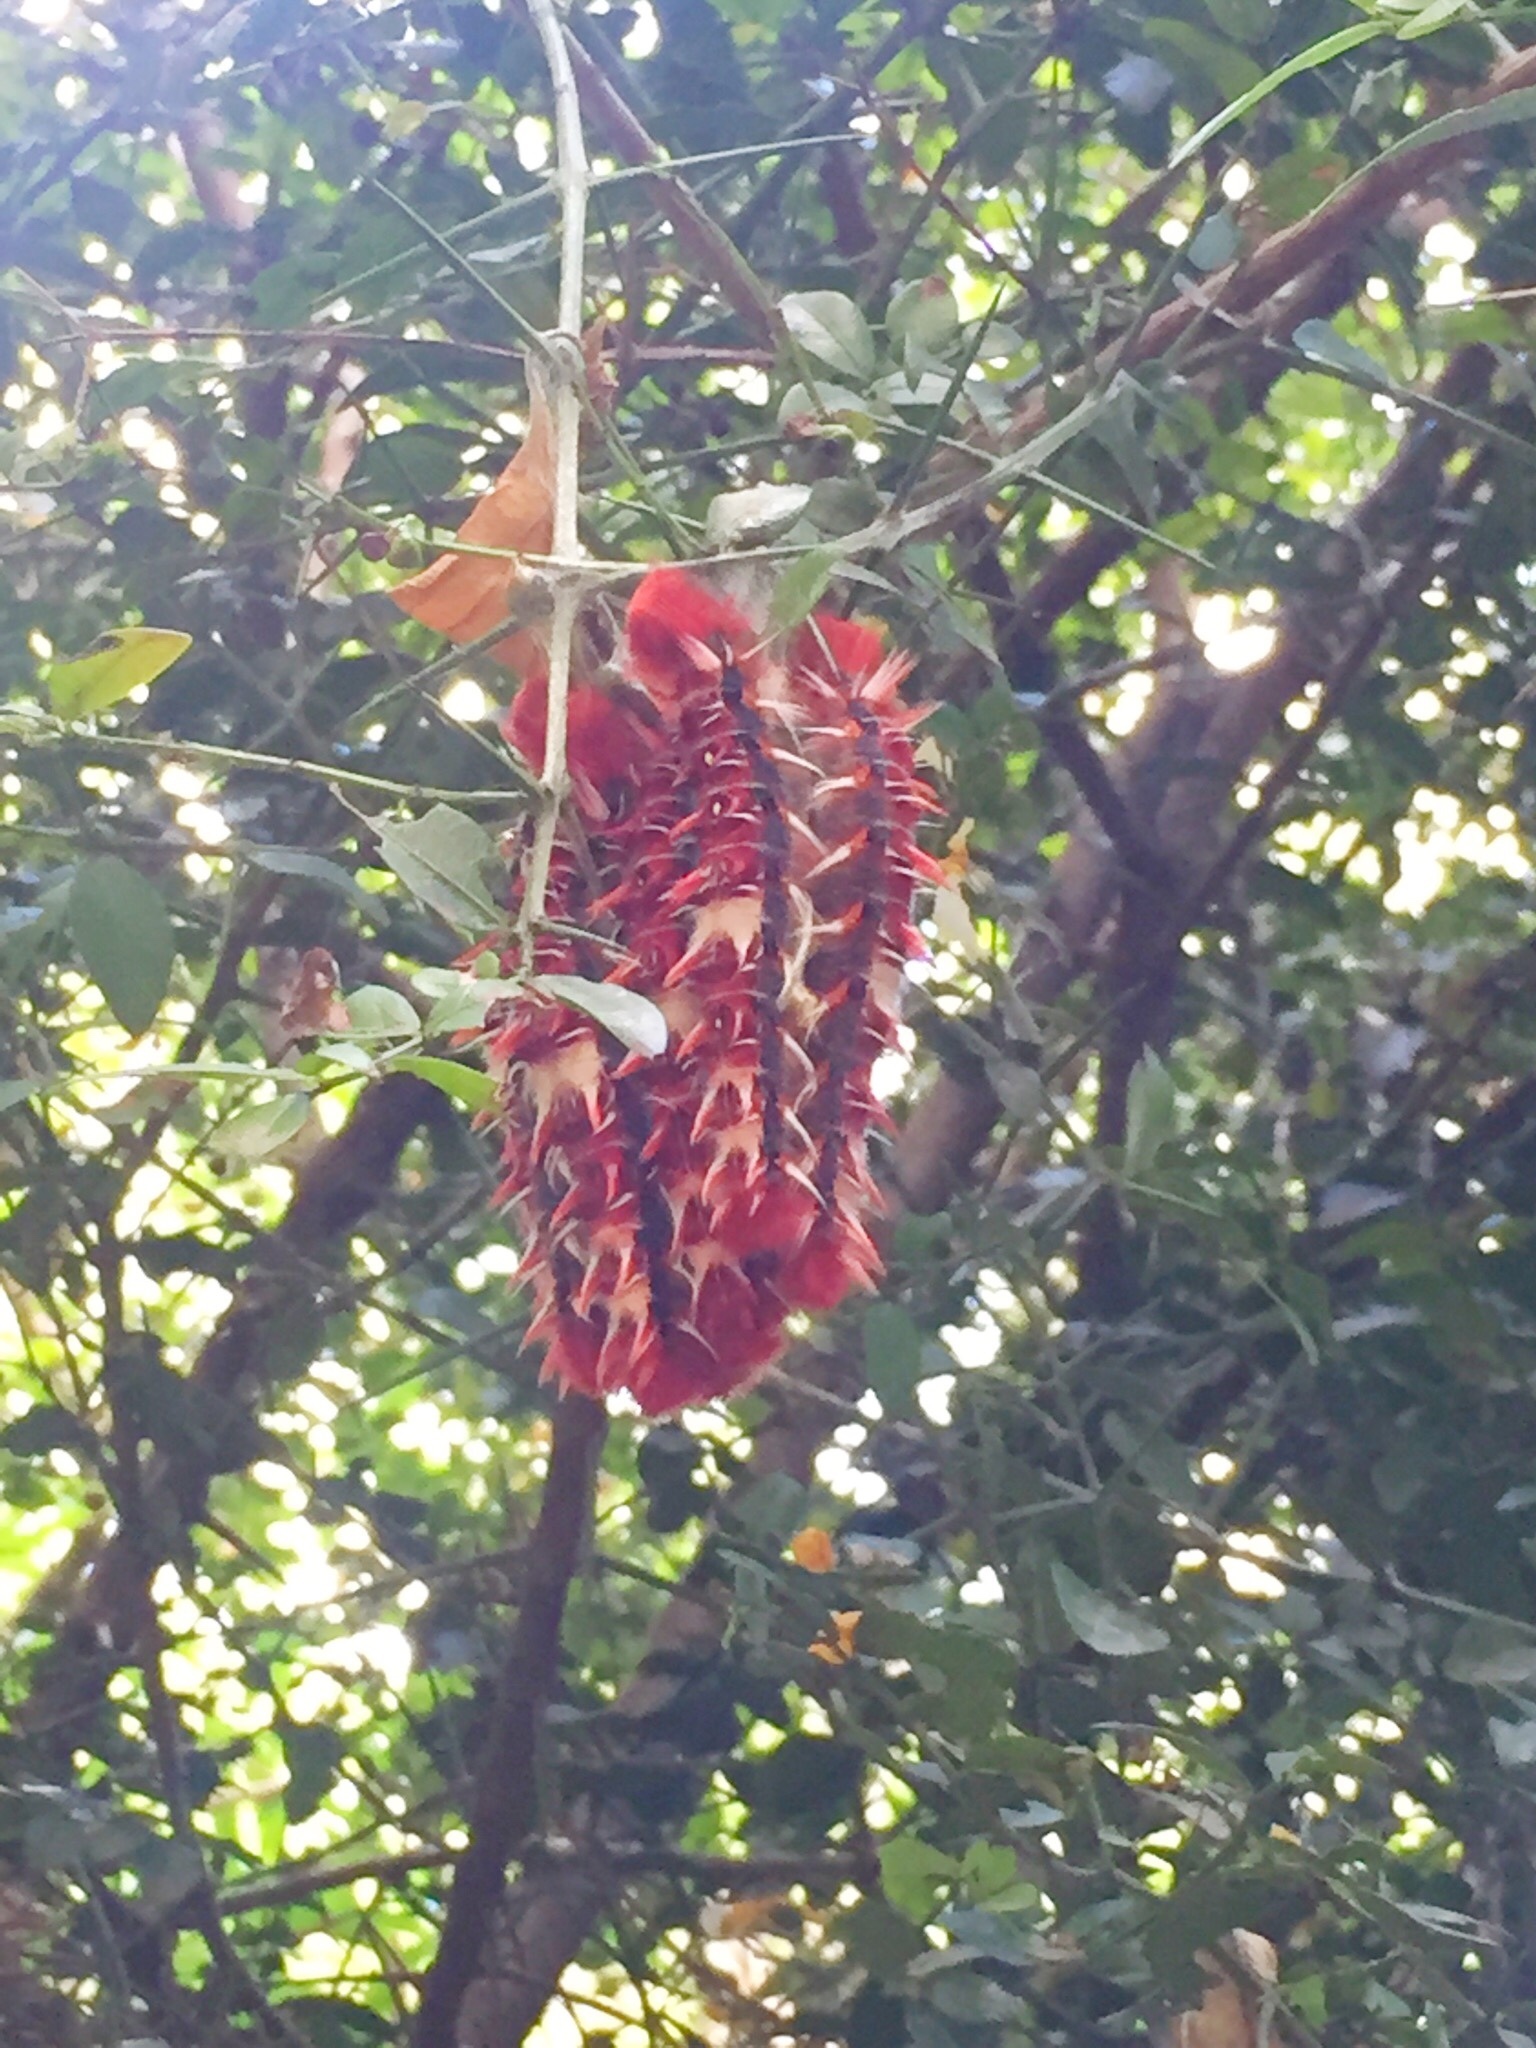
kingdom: Animalia
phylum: Arthropoda
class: Insecta
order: Lepidoptera
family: Nymphalidae
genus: Morpho
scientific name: Morpho epistrophus
